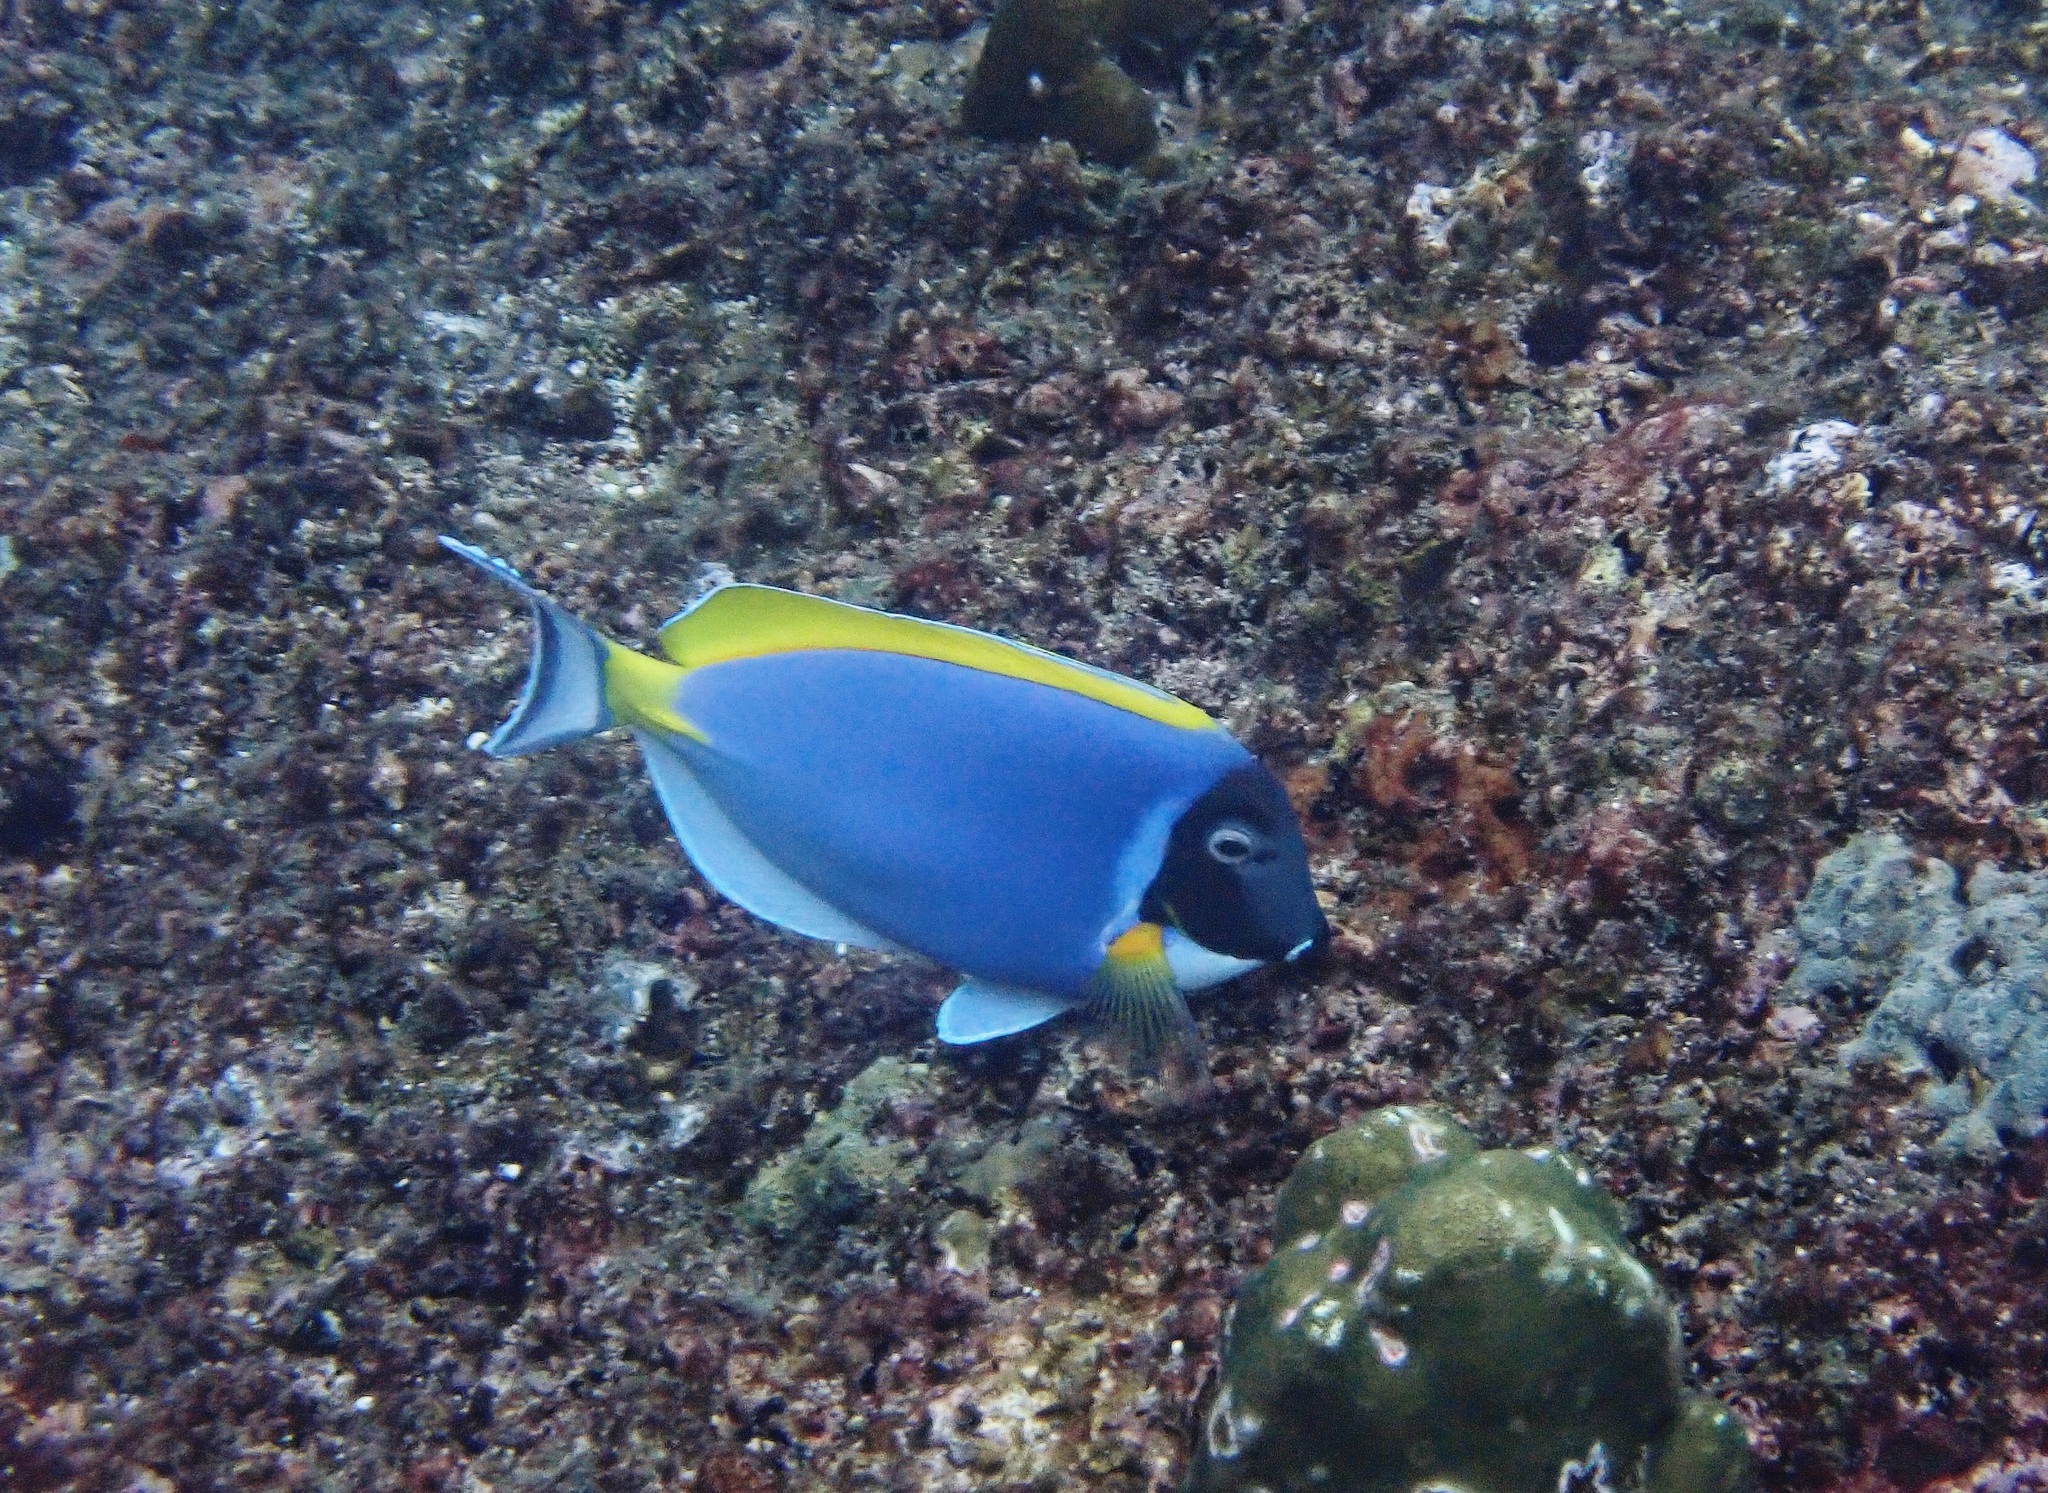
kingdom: Animalia
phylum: Chordata
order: Perciformes
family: Acanthuridae
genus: Acanthurus
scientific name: Acanthurus leucosternon
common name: Blue surgeonfish
